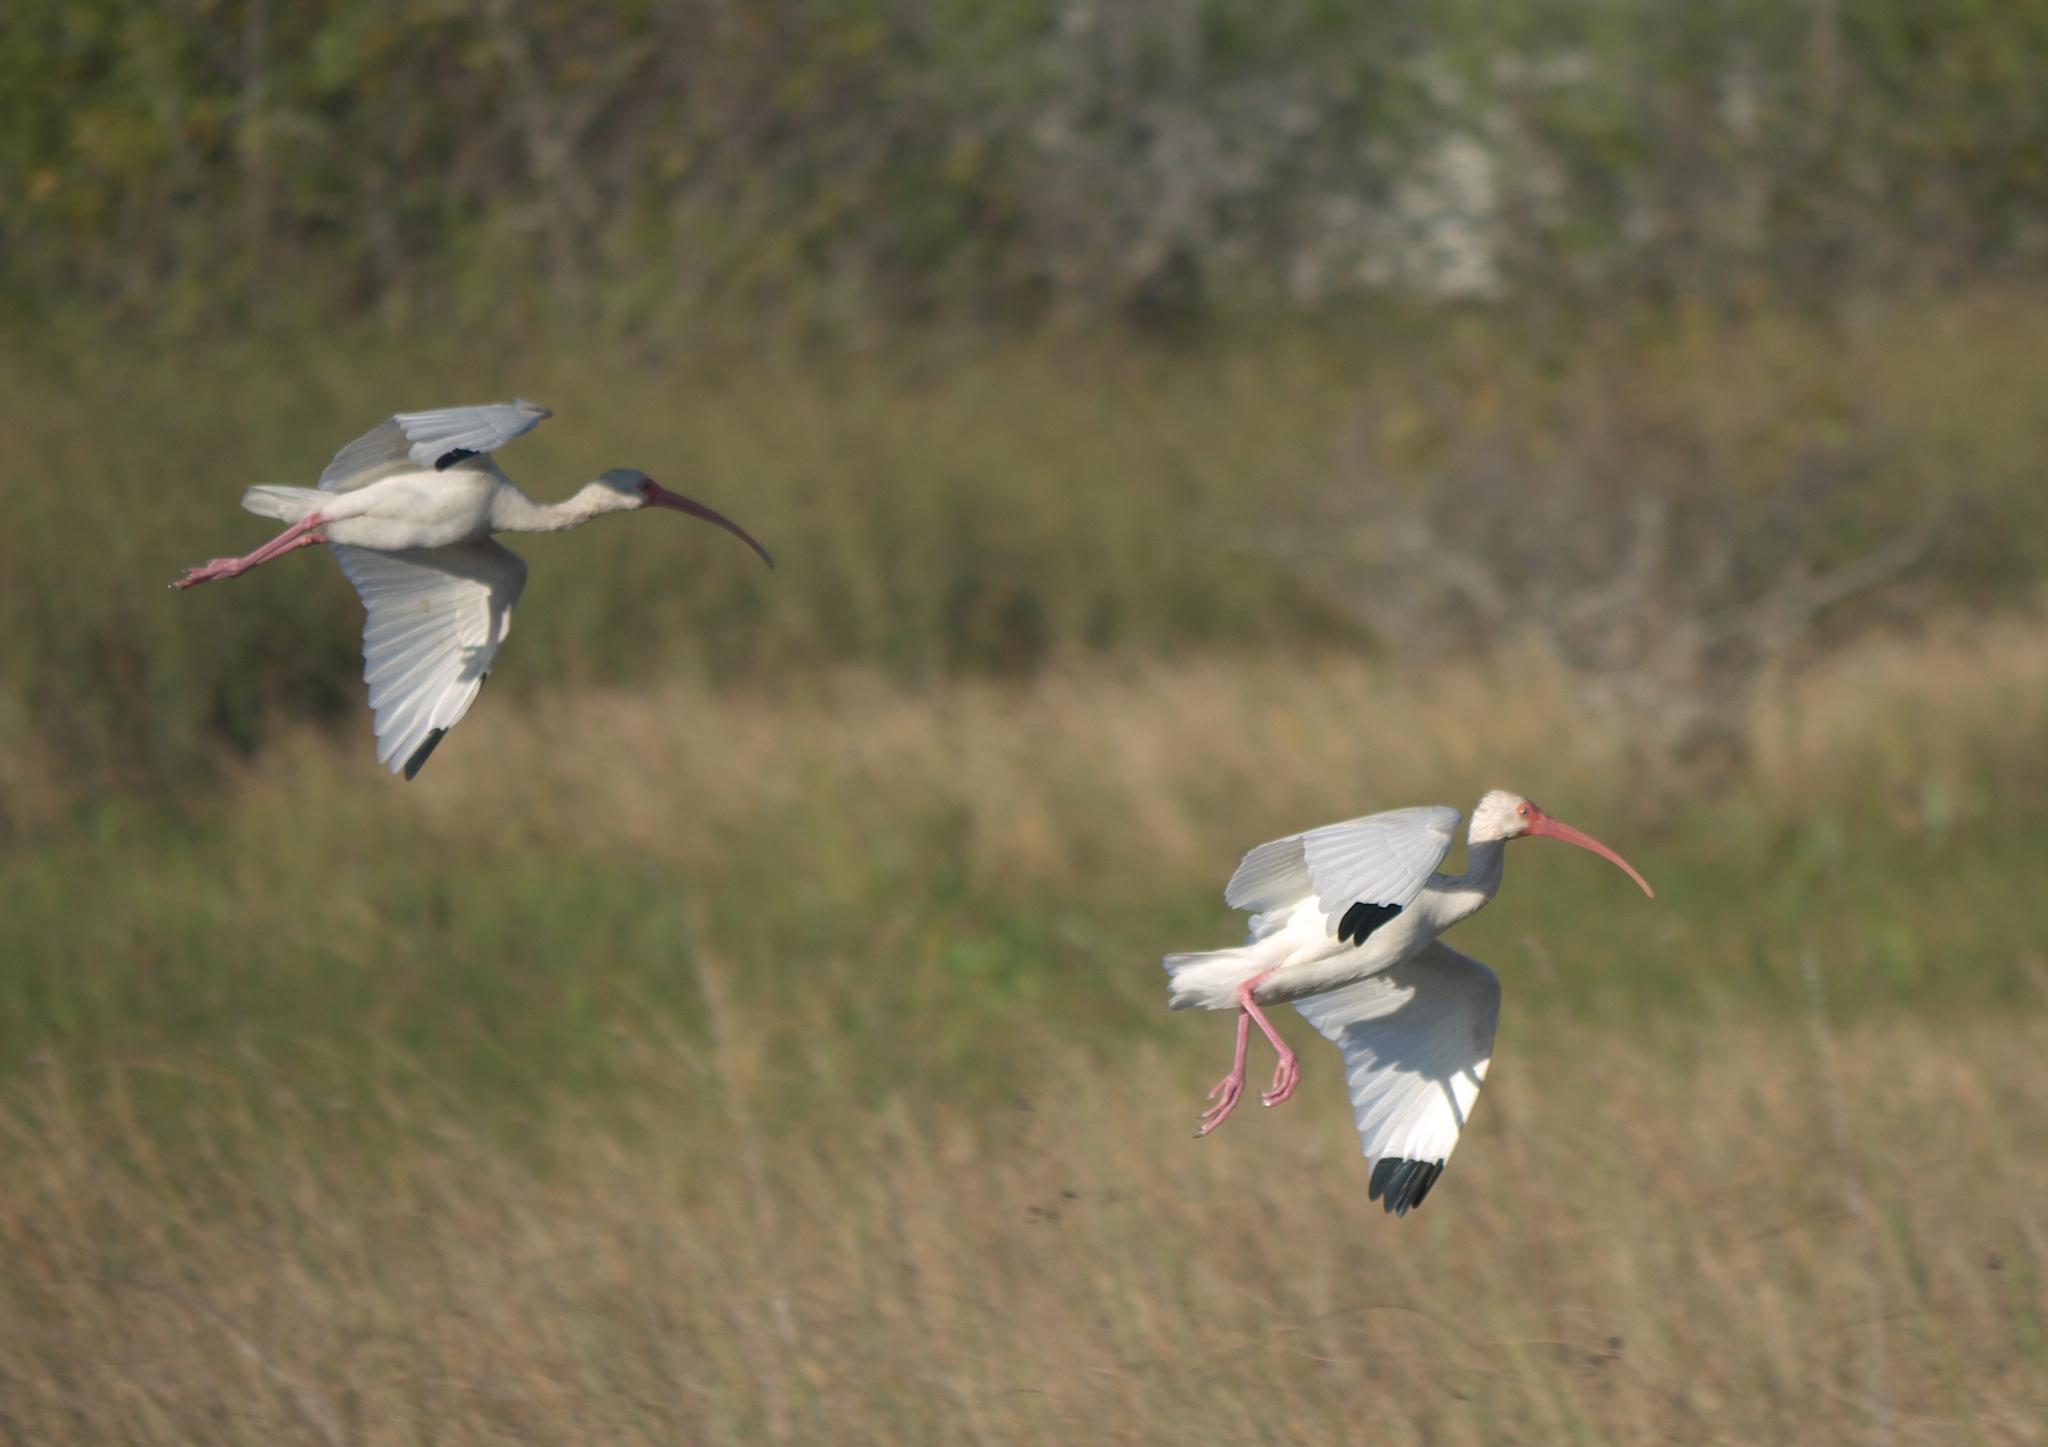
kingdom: Animalia
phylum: Chordata
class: Aves
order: Pelecaniformes
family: Threskiornithidae
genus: Eudocimus
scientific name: Eudocimus albus
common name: White ibis
